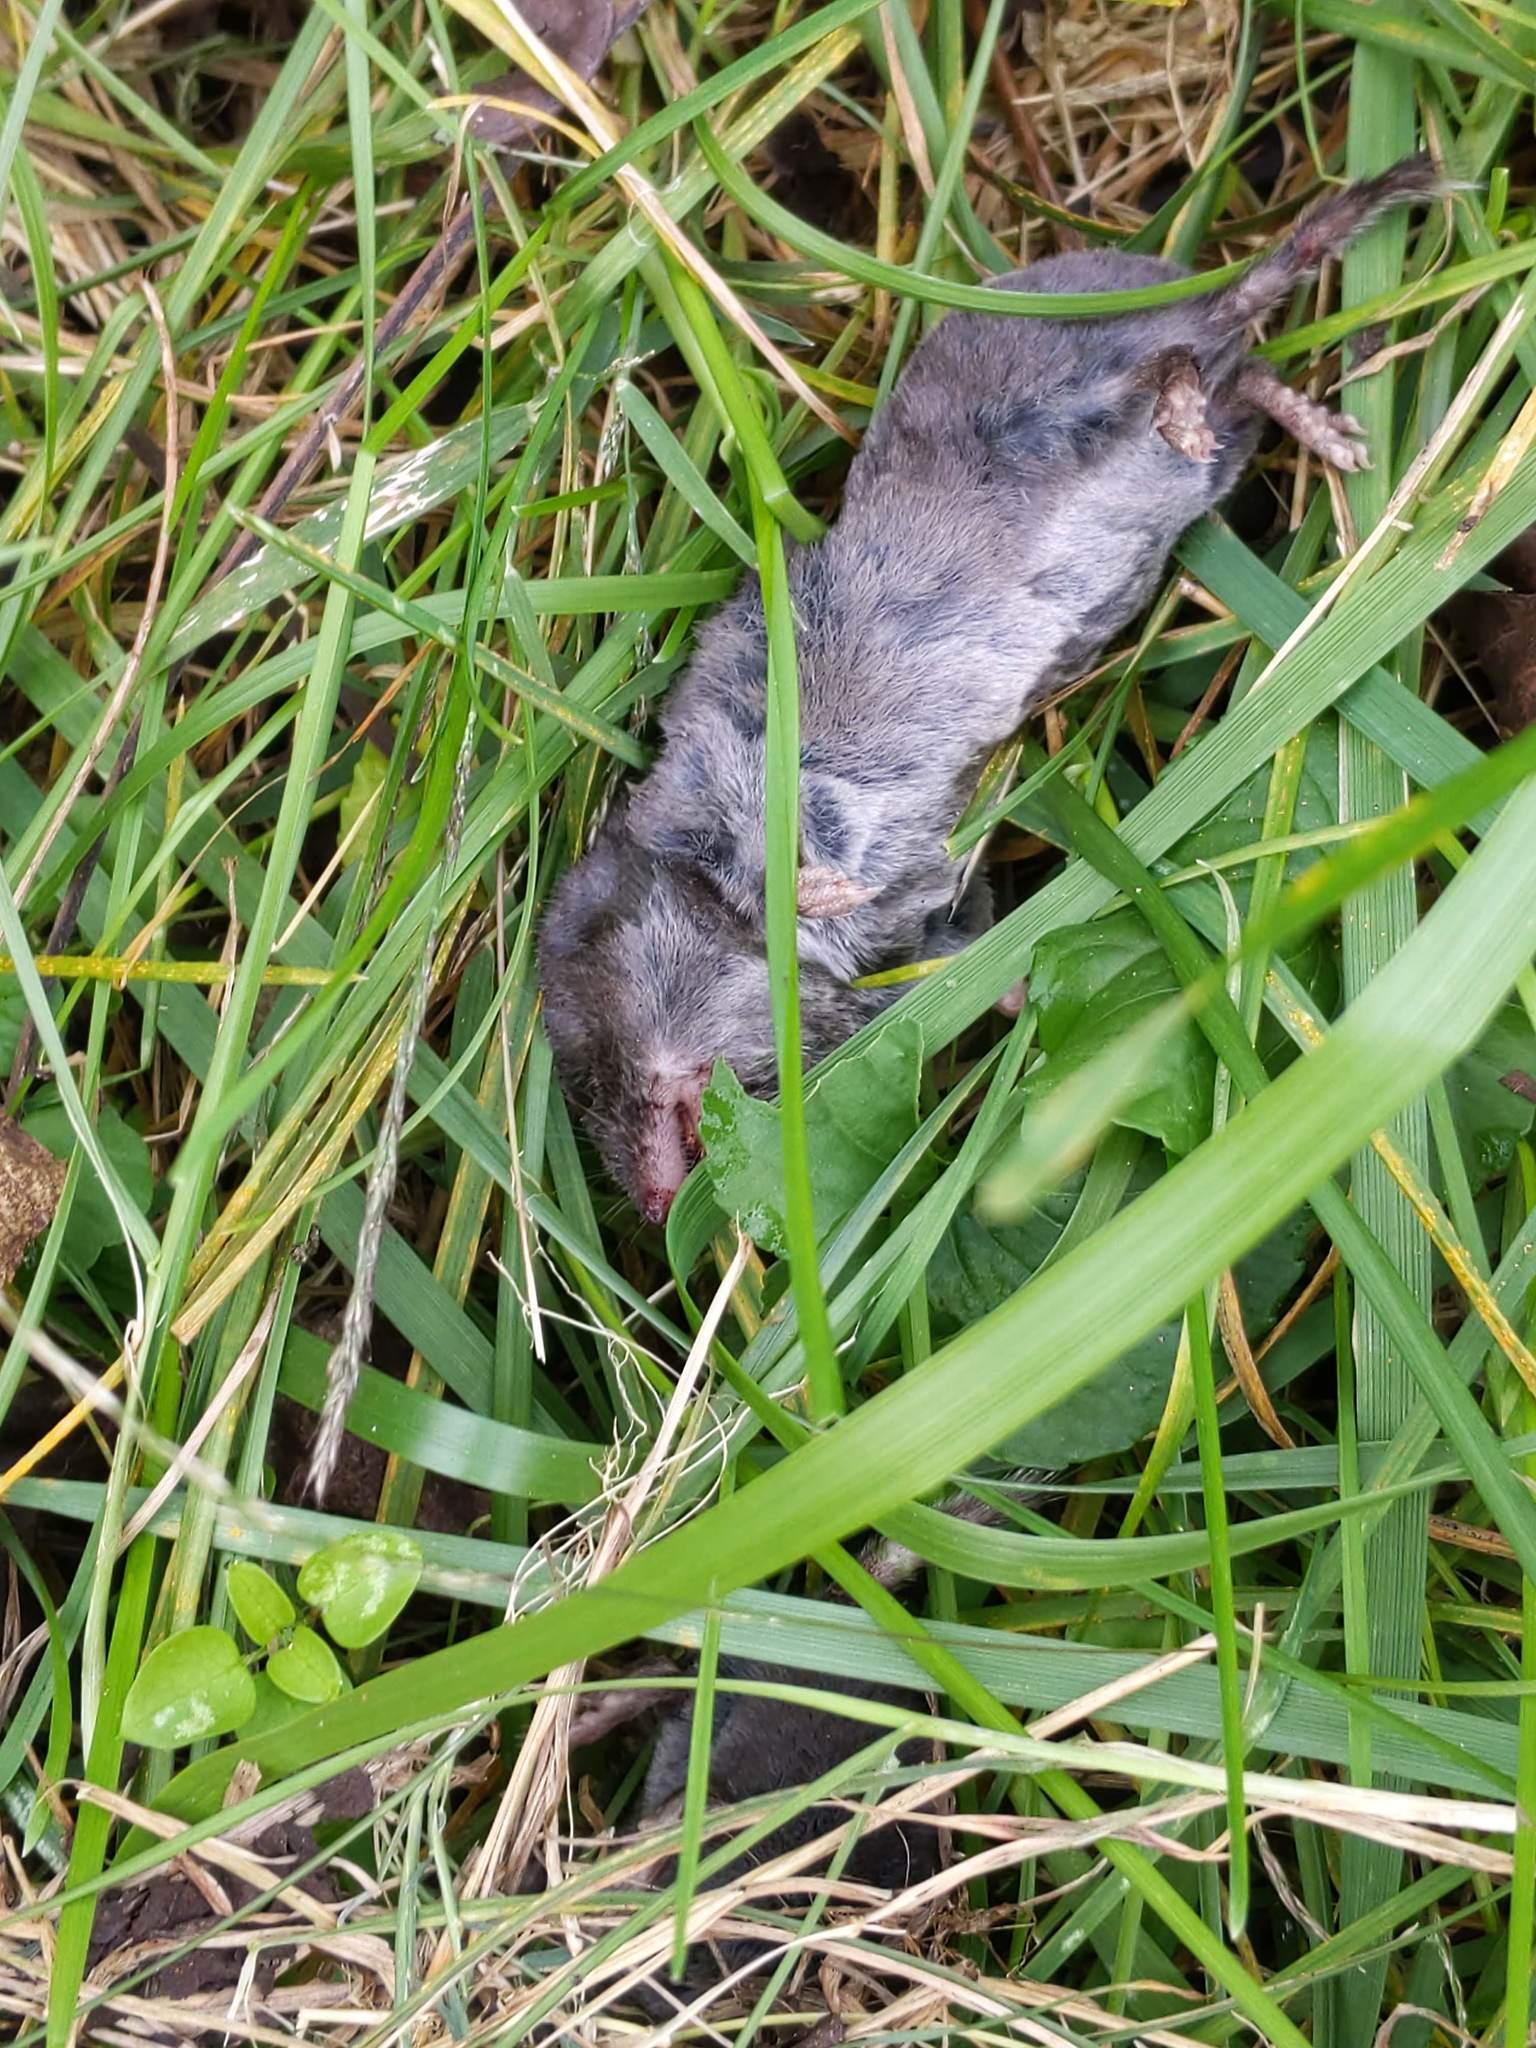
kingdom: Animalia
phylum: Chordata
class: Mammalia
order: Soricomorpha
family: Soricidae
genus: Blarina
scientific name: Blarina brevicauda
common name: Northern short-tailed shrew
